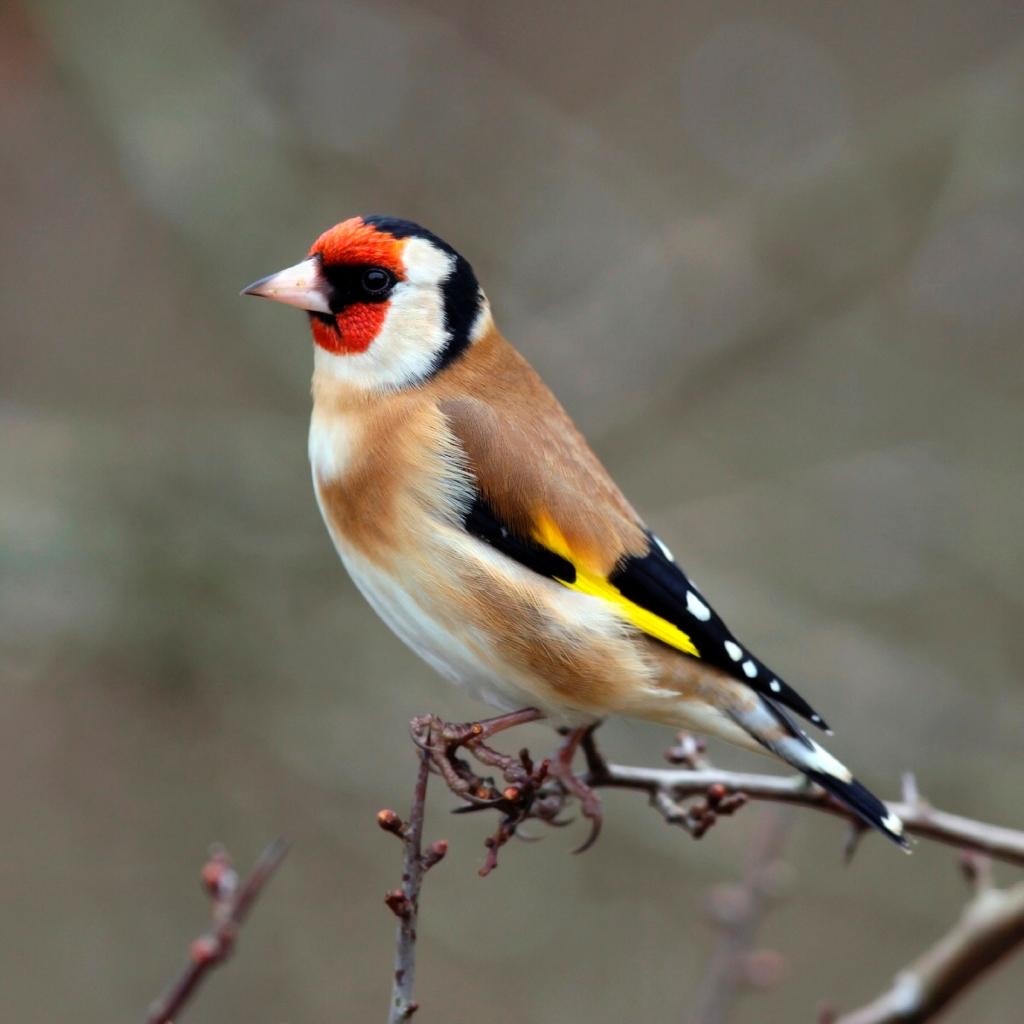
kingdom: Animalia
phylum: Chordata
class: Aves
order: Passeriformes
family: Fringillidae
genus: Carduelis
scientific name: Carduelis carduelis
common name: European goldfinch
